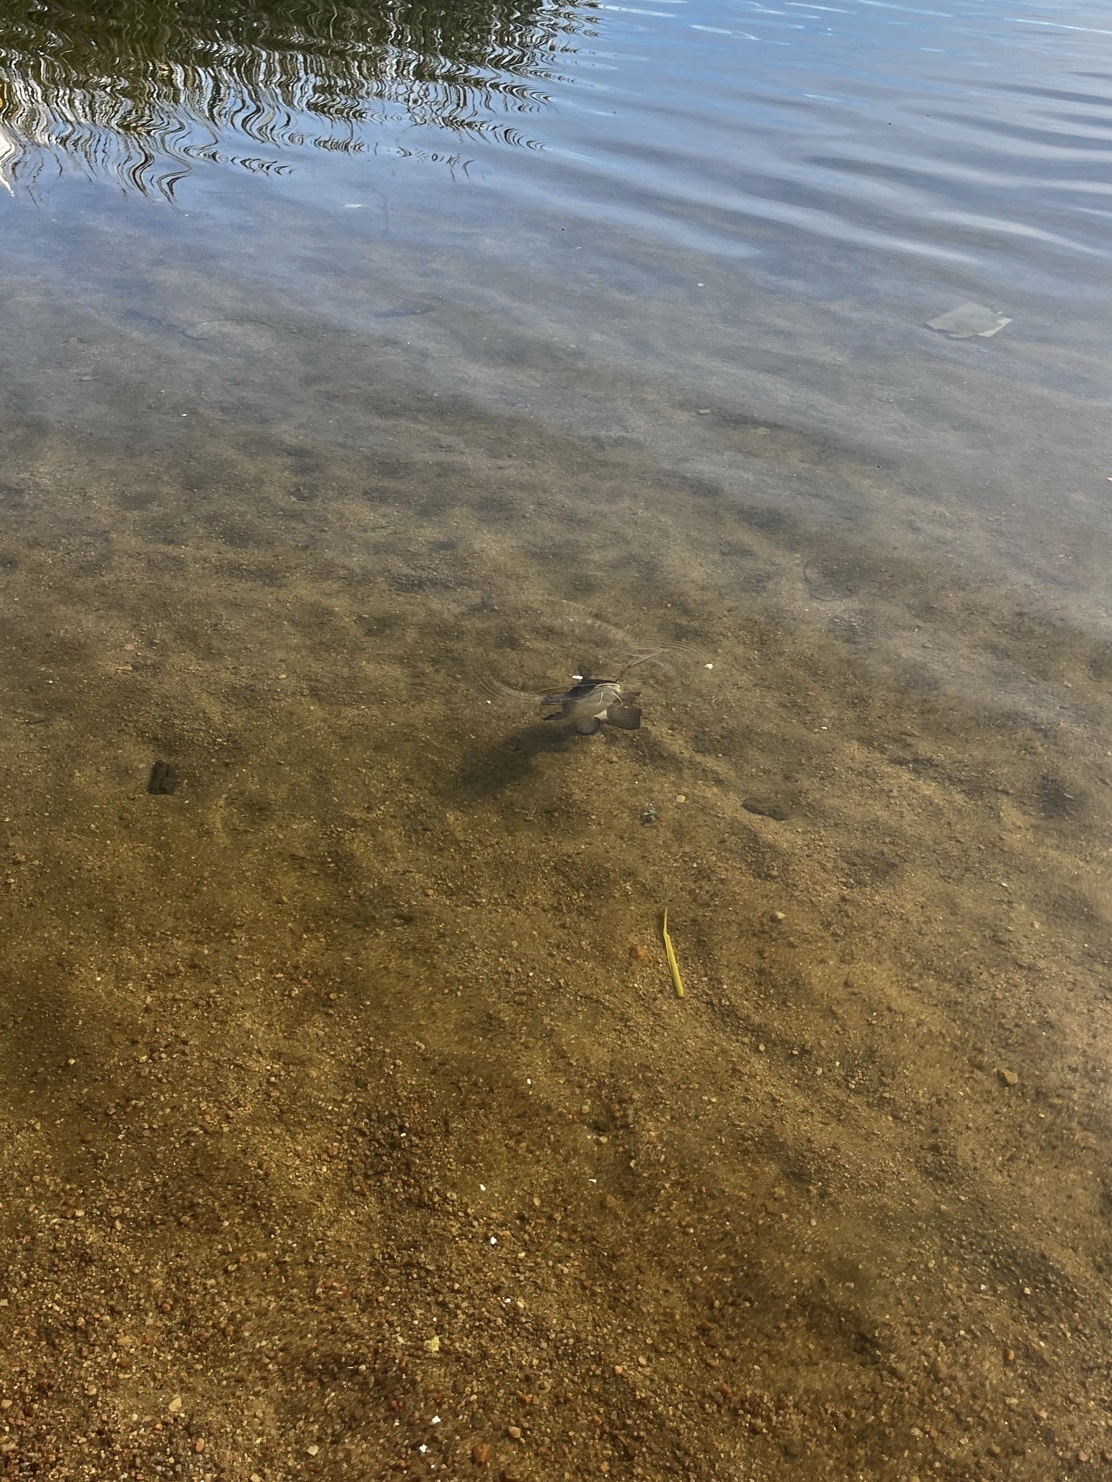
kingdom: Animalia
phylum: Chordata
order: Siluriformes
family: Heptapteridae
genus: Rhamdia
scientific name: Rhamdia quelen
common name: Catfish
